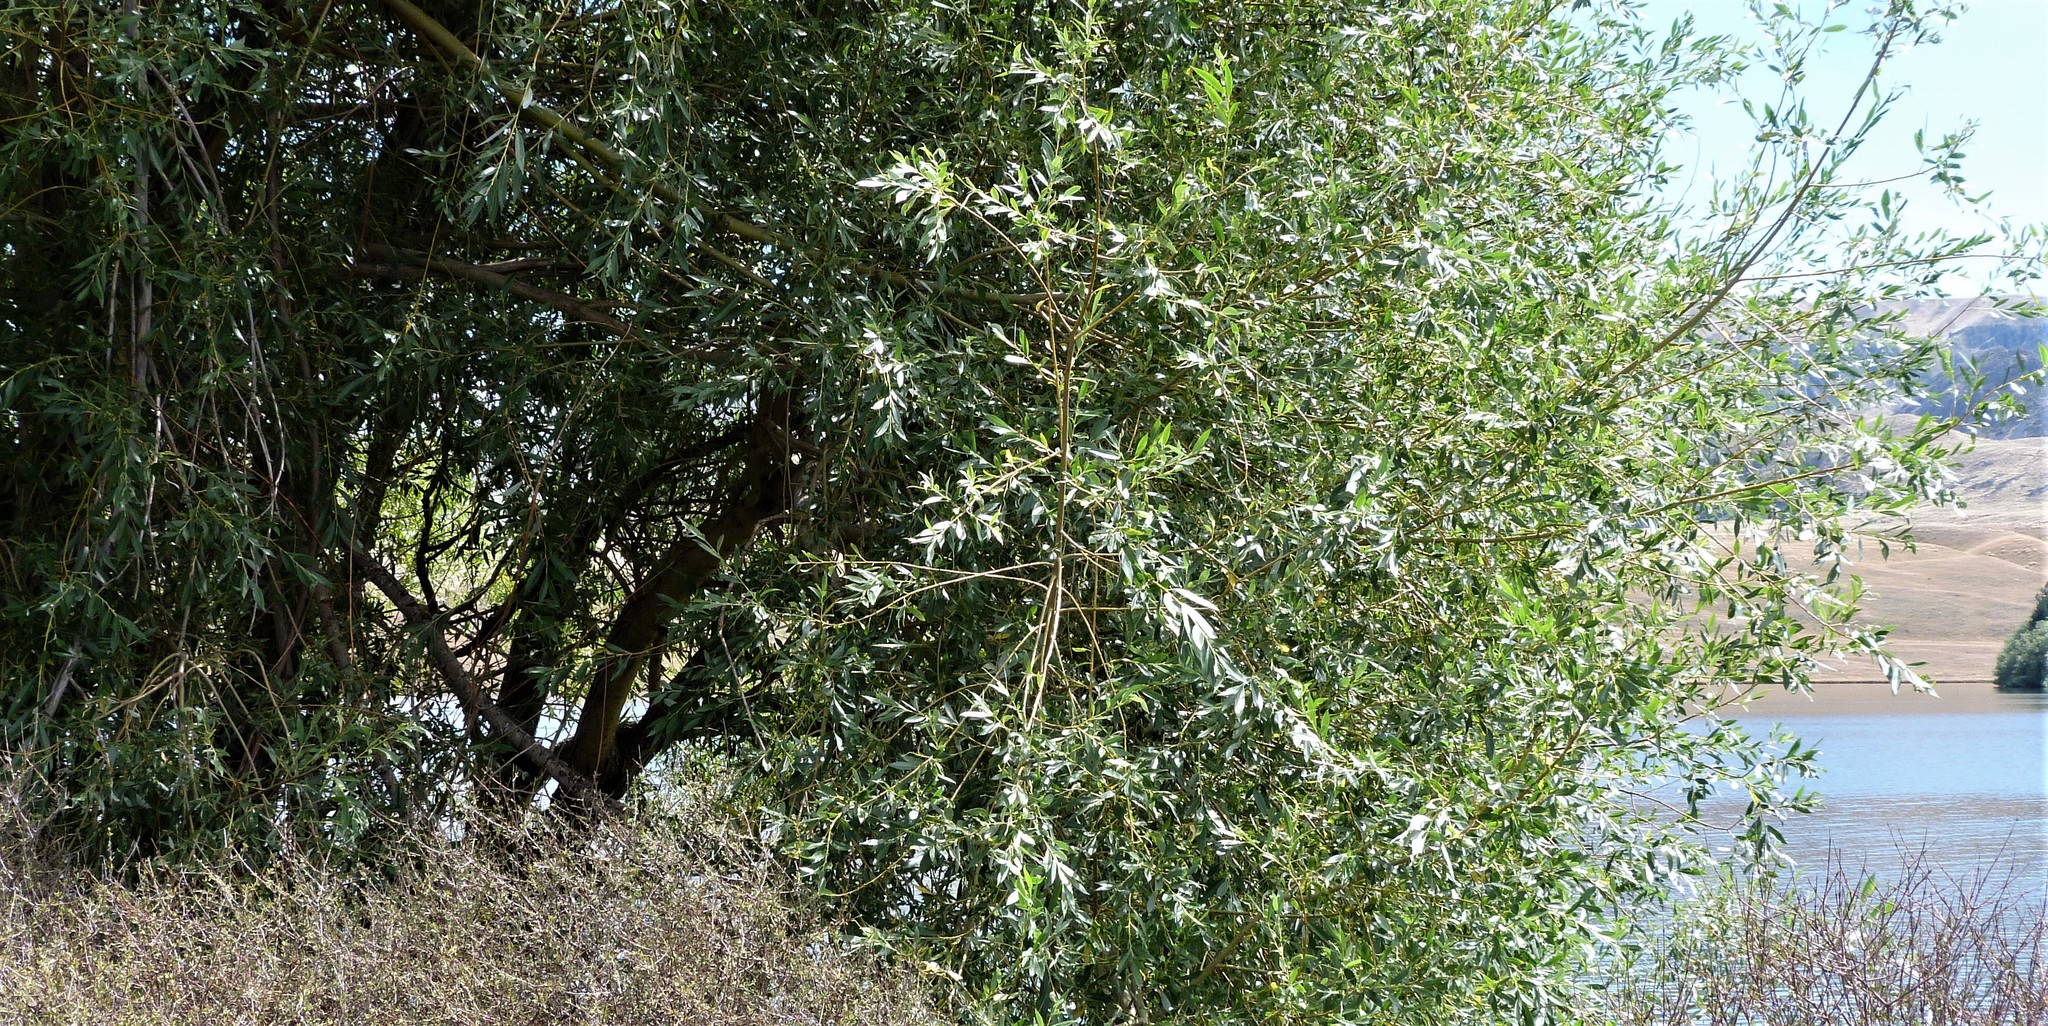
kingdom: Plantae
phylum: Tracheophyta
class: Magnoliopsida
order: Malpighiales
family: Salicaceae
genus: Salix
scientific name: Salix fragilis
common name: Crack willow
